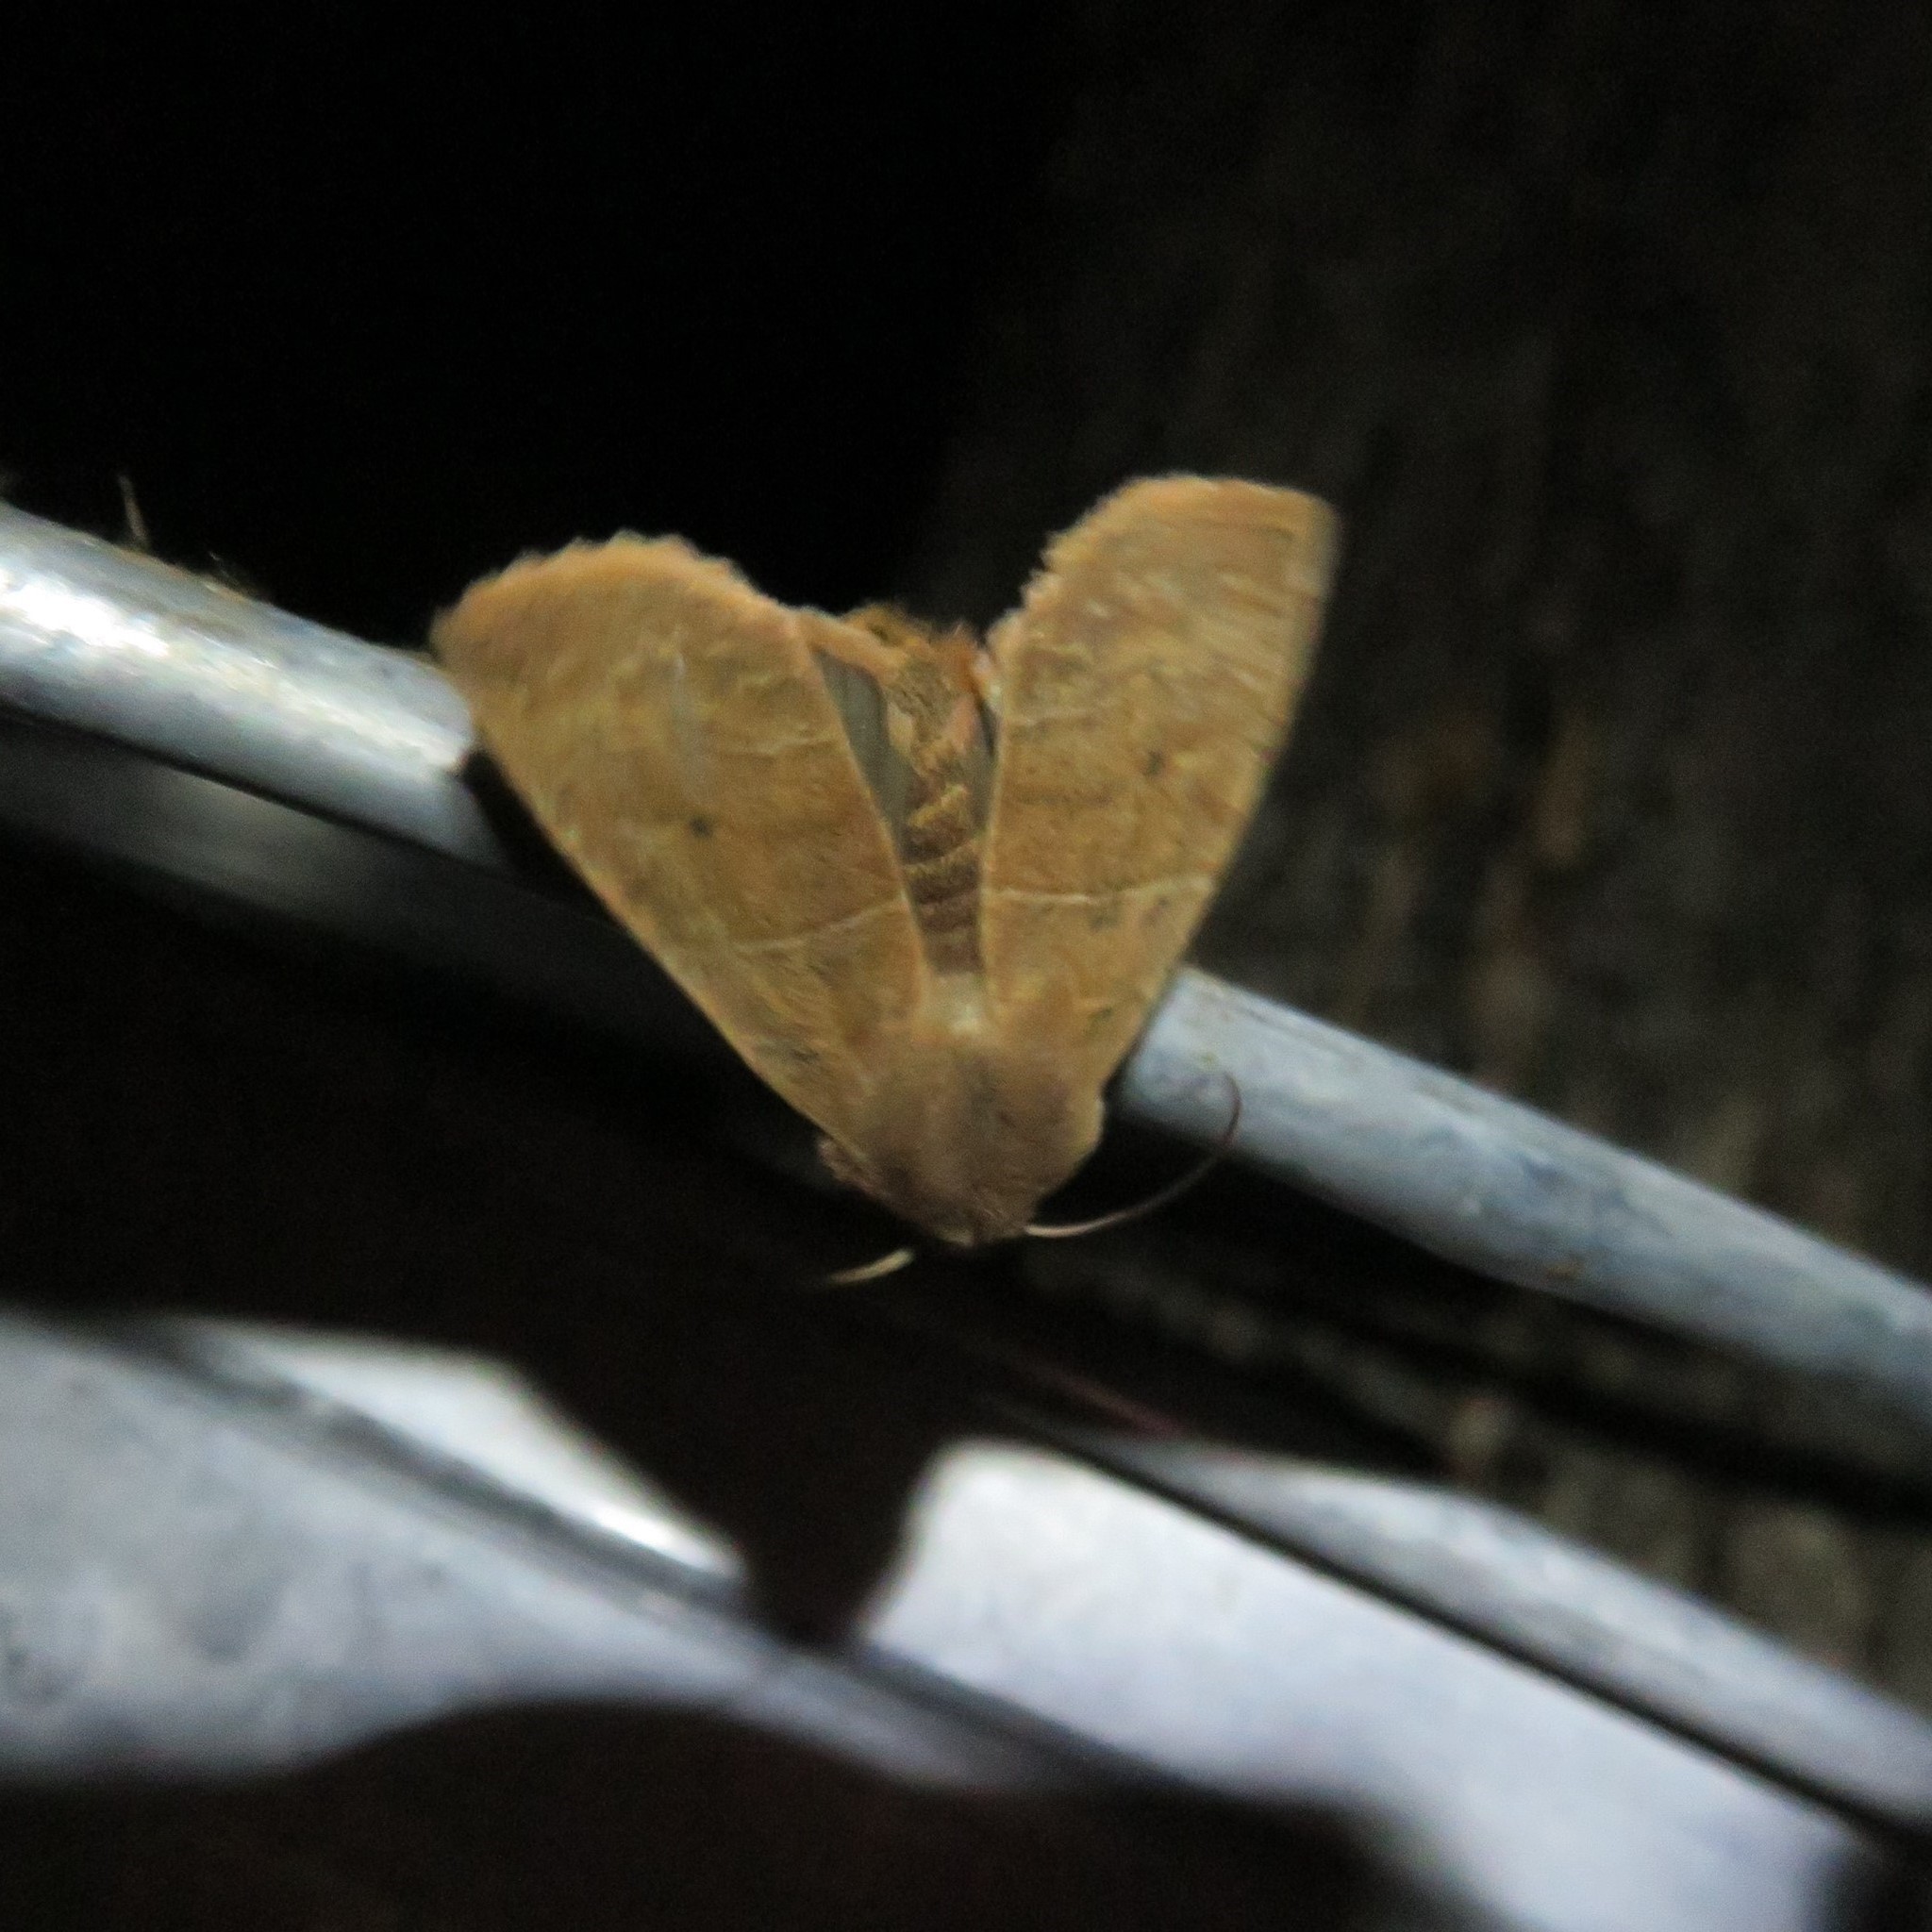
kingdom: Animalia
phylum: Arthropoda
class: Insecta
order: Lepidoptera
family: Noctuidae
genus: Eupsilia
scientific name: Eupsilia morrisoni
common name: Morrison's sallow
